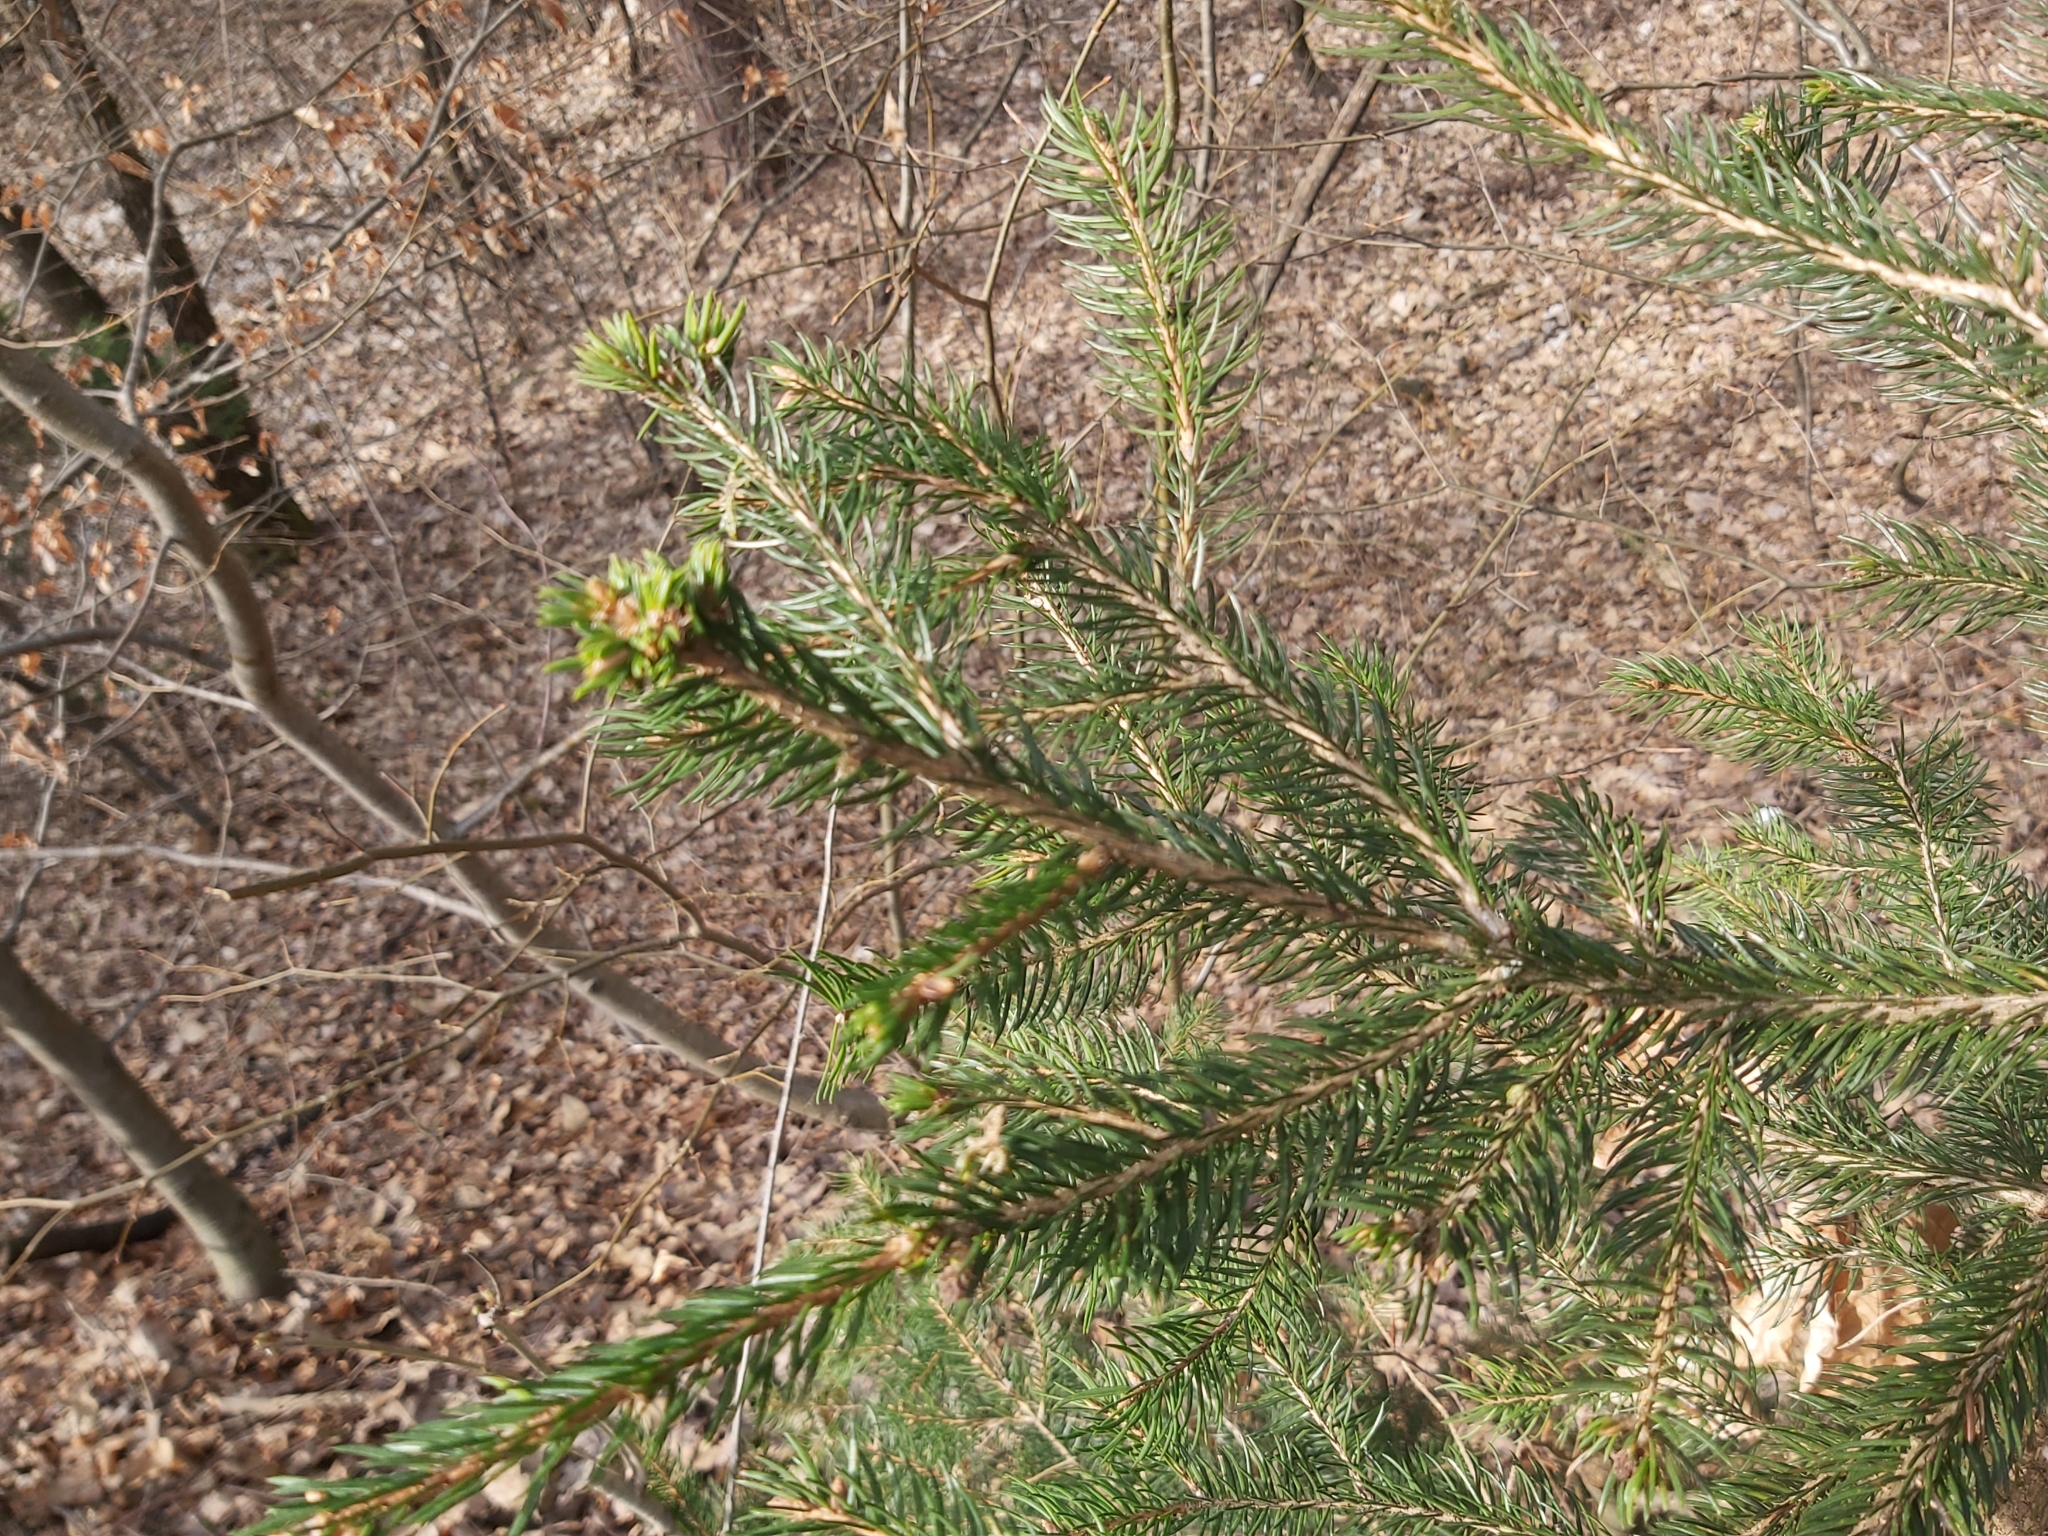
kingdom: Plantae
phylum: Tracheophyta
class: Pinopsida
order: Pinales
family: Pinaceae
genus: Picea
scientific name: Picea abies
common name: Norway spruce
